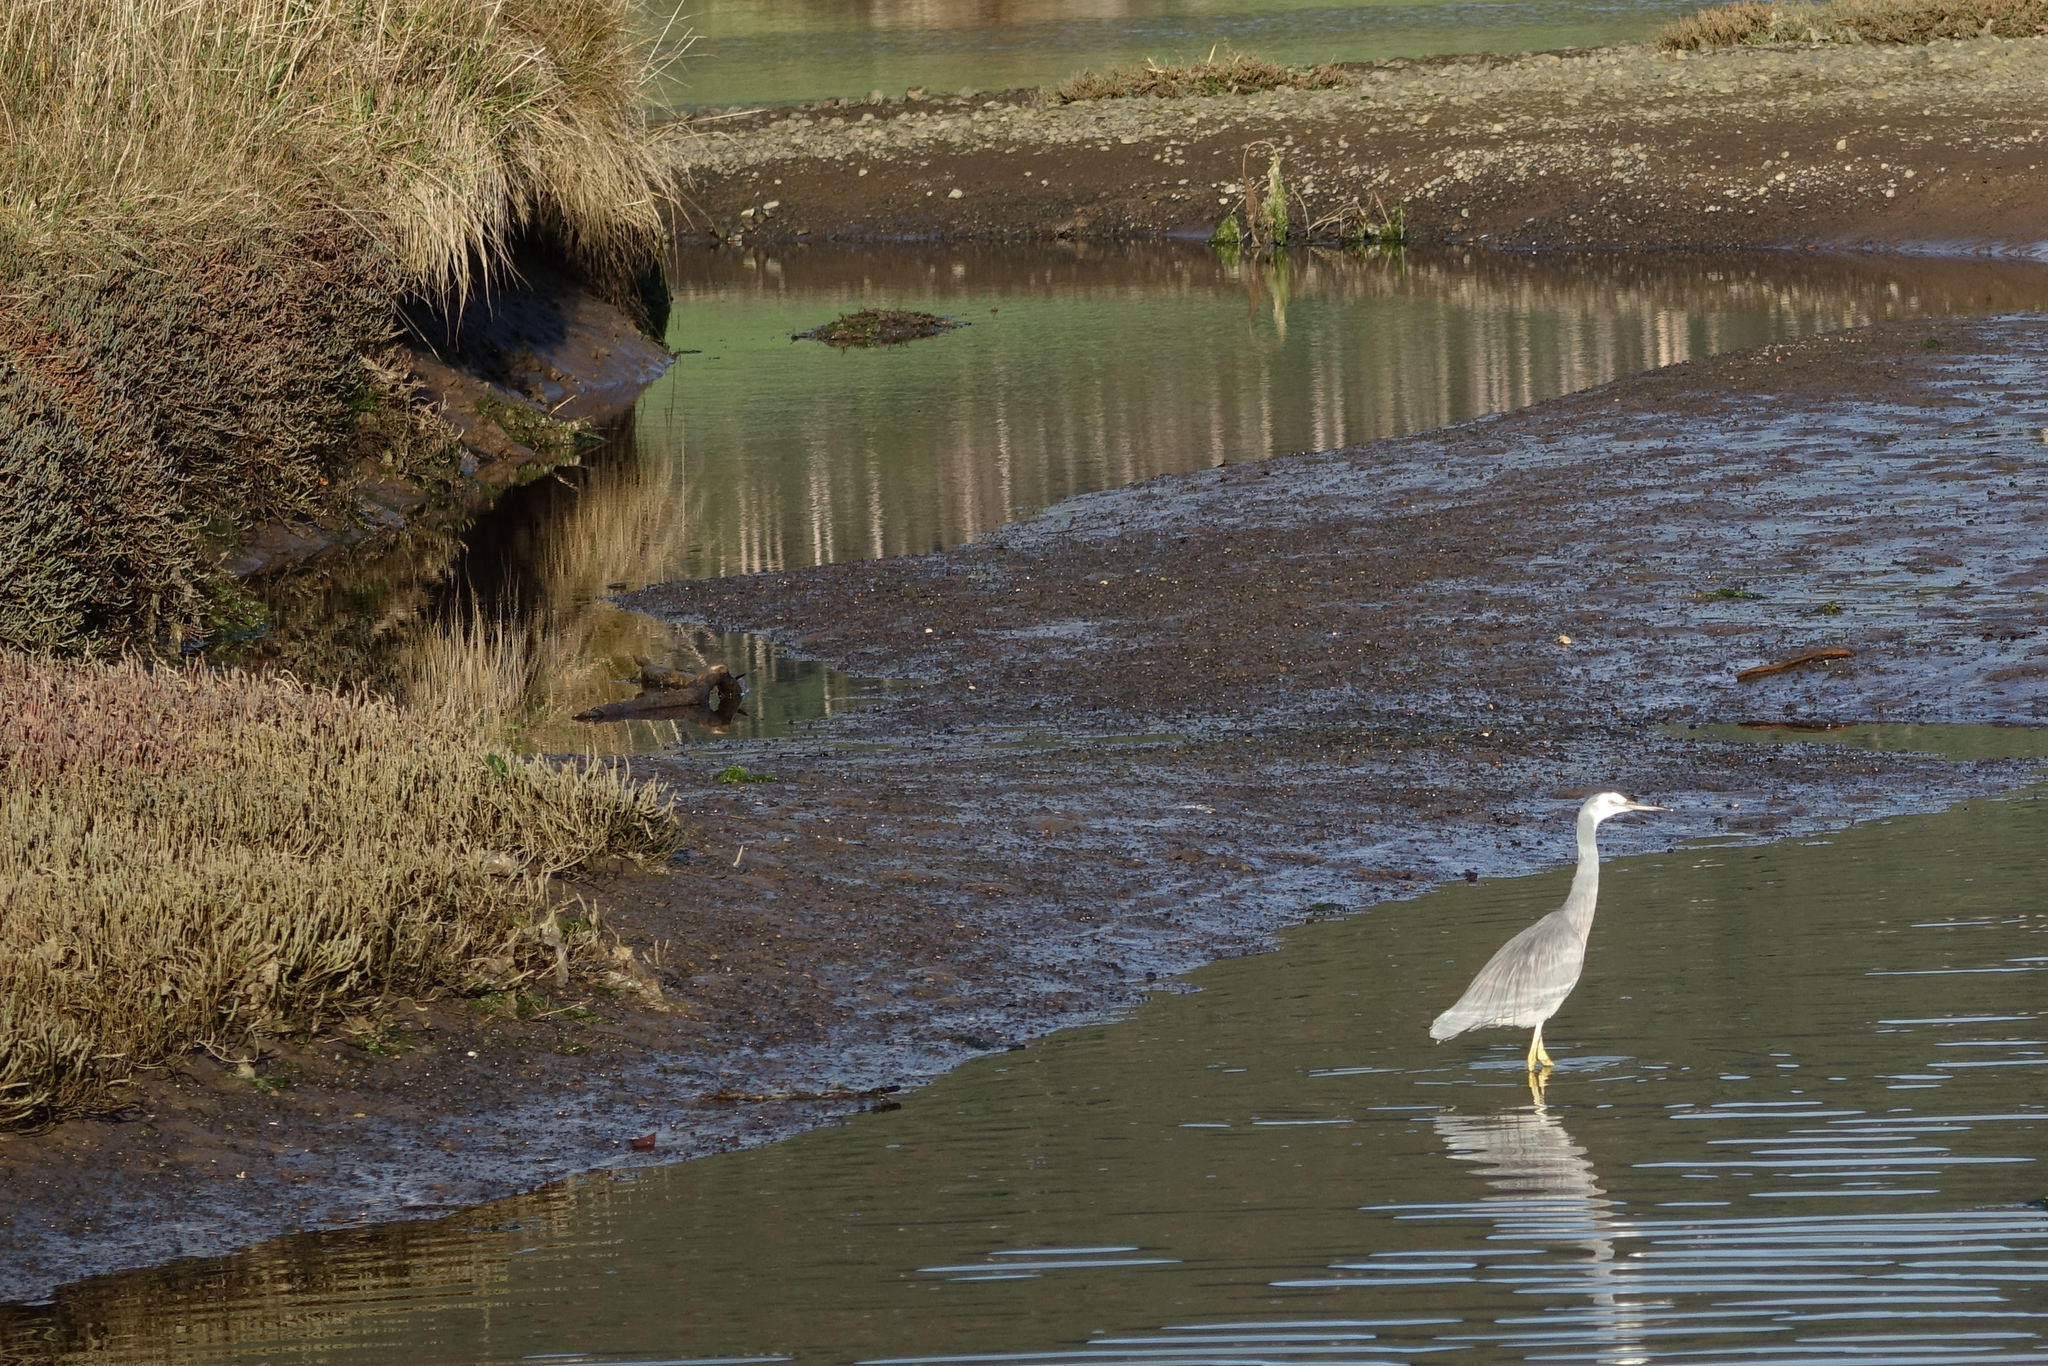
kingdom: Animalia
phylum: Chordata
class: Aves
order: Pelecaniformes
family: Ardeidae
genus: Egretta
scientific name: Egretta novaehollandiae
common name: White-faced heron
